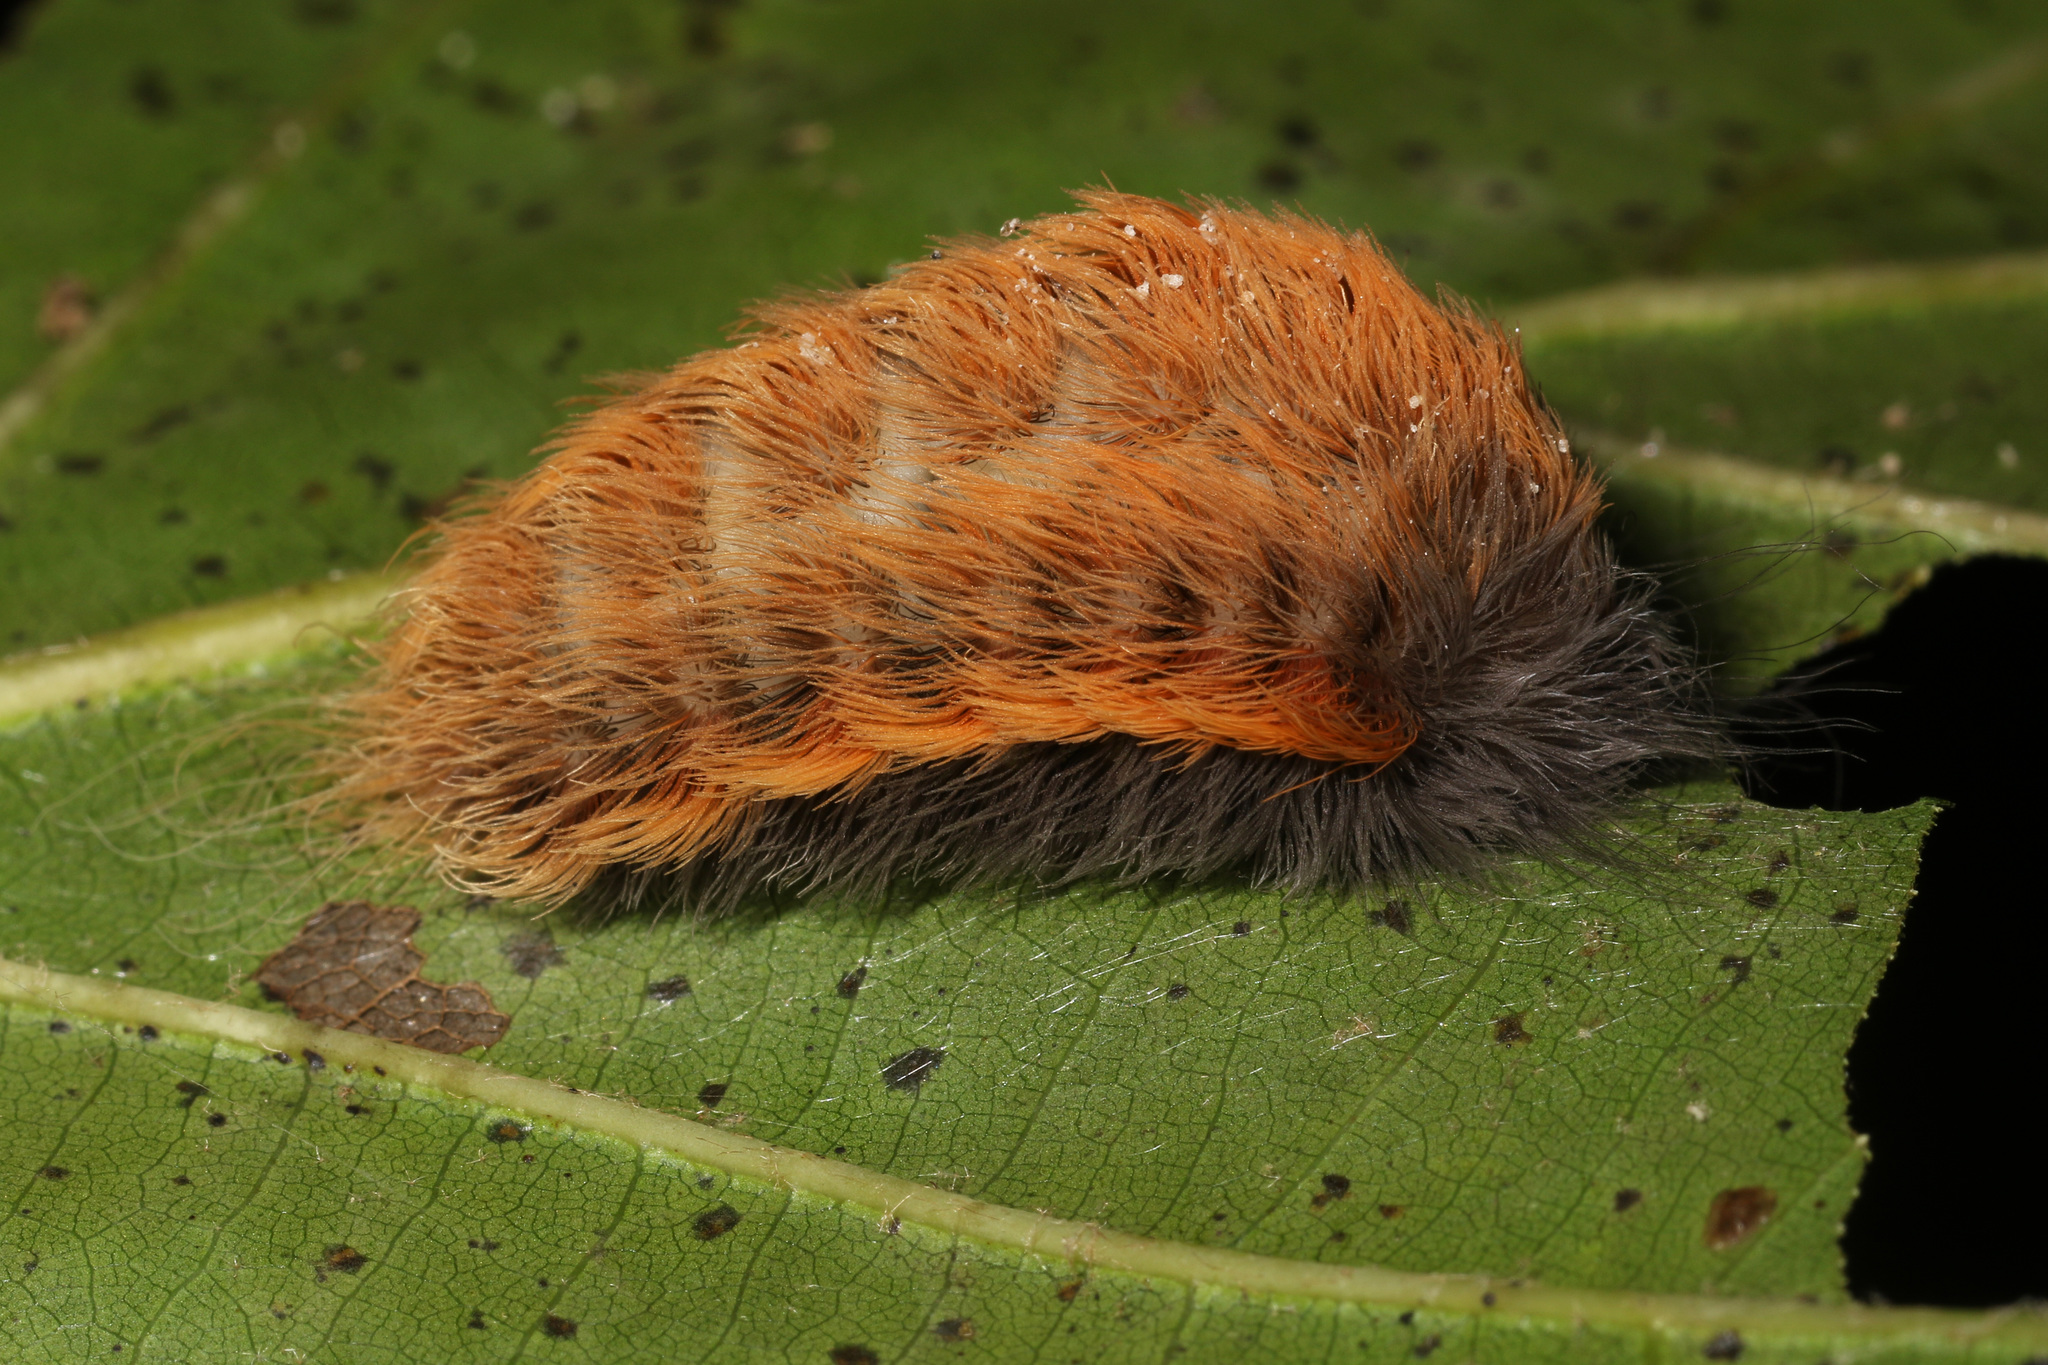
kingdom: Animalia
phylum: Arthropoda
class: Insecta
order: Lepidoptera
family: Megalopygidae
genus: Megalopyge
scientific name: Megalopyge crispata
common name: Black-waved flannel moth
